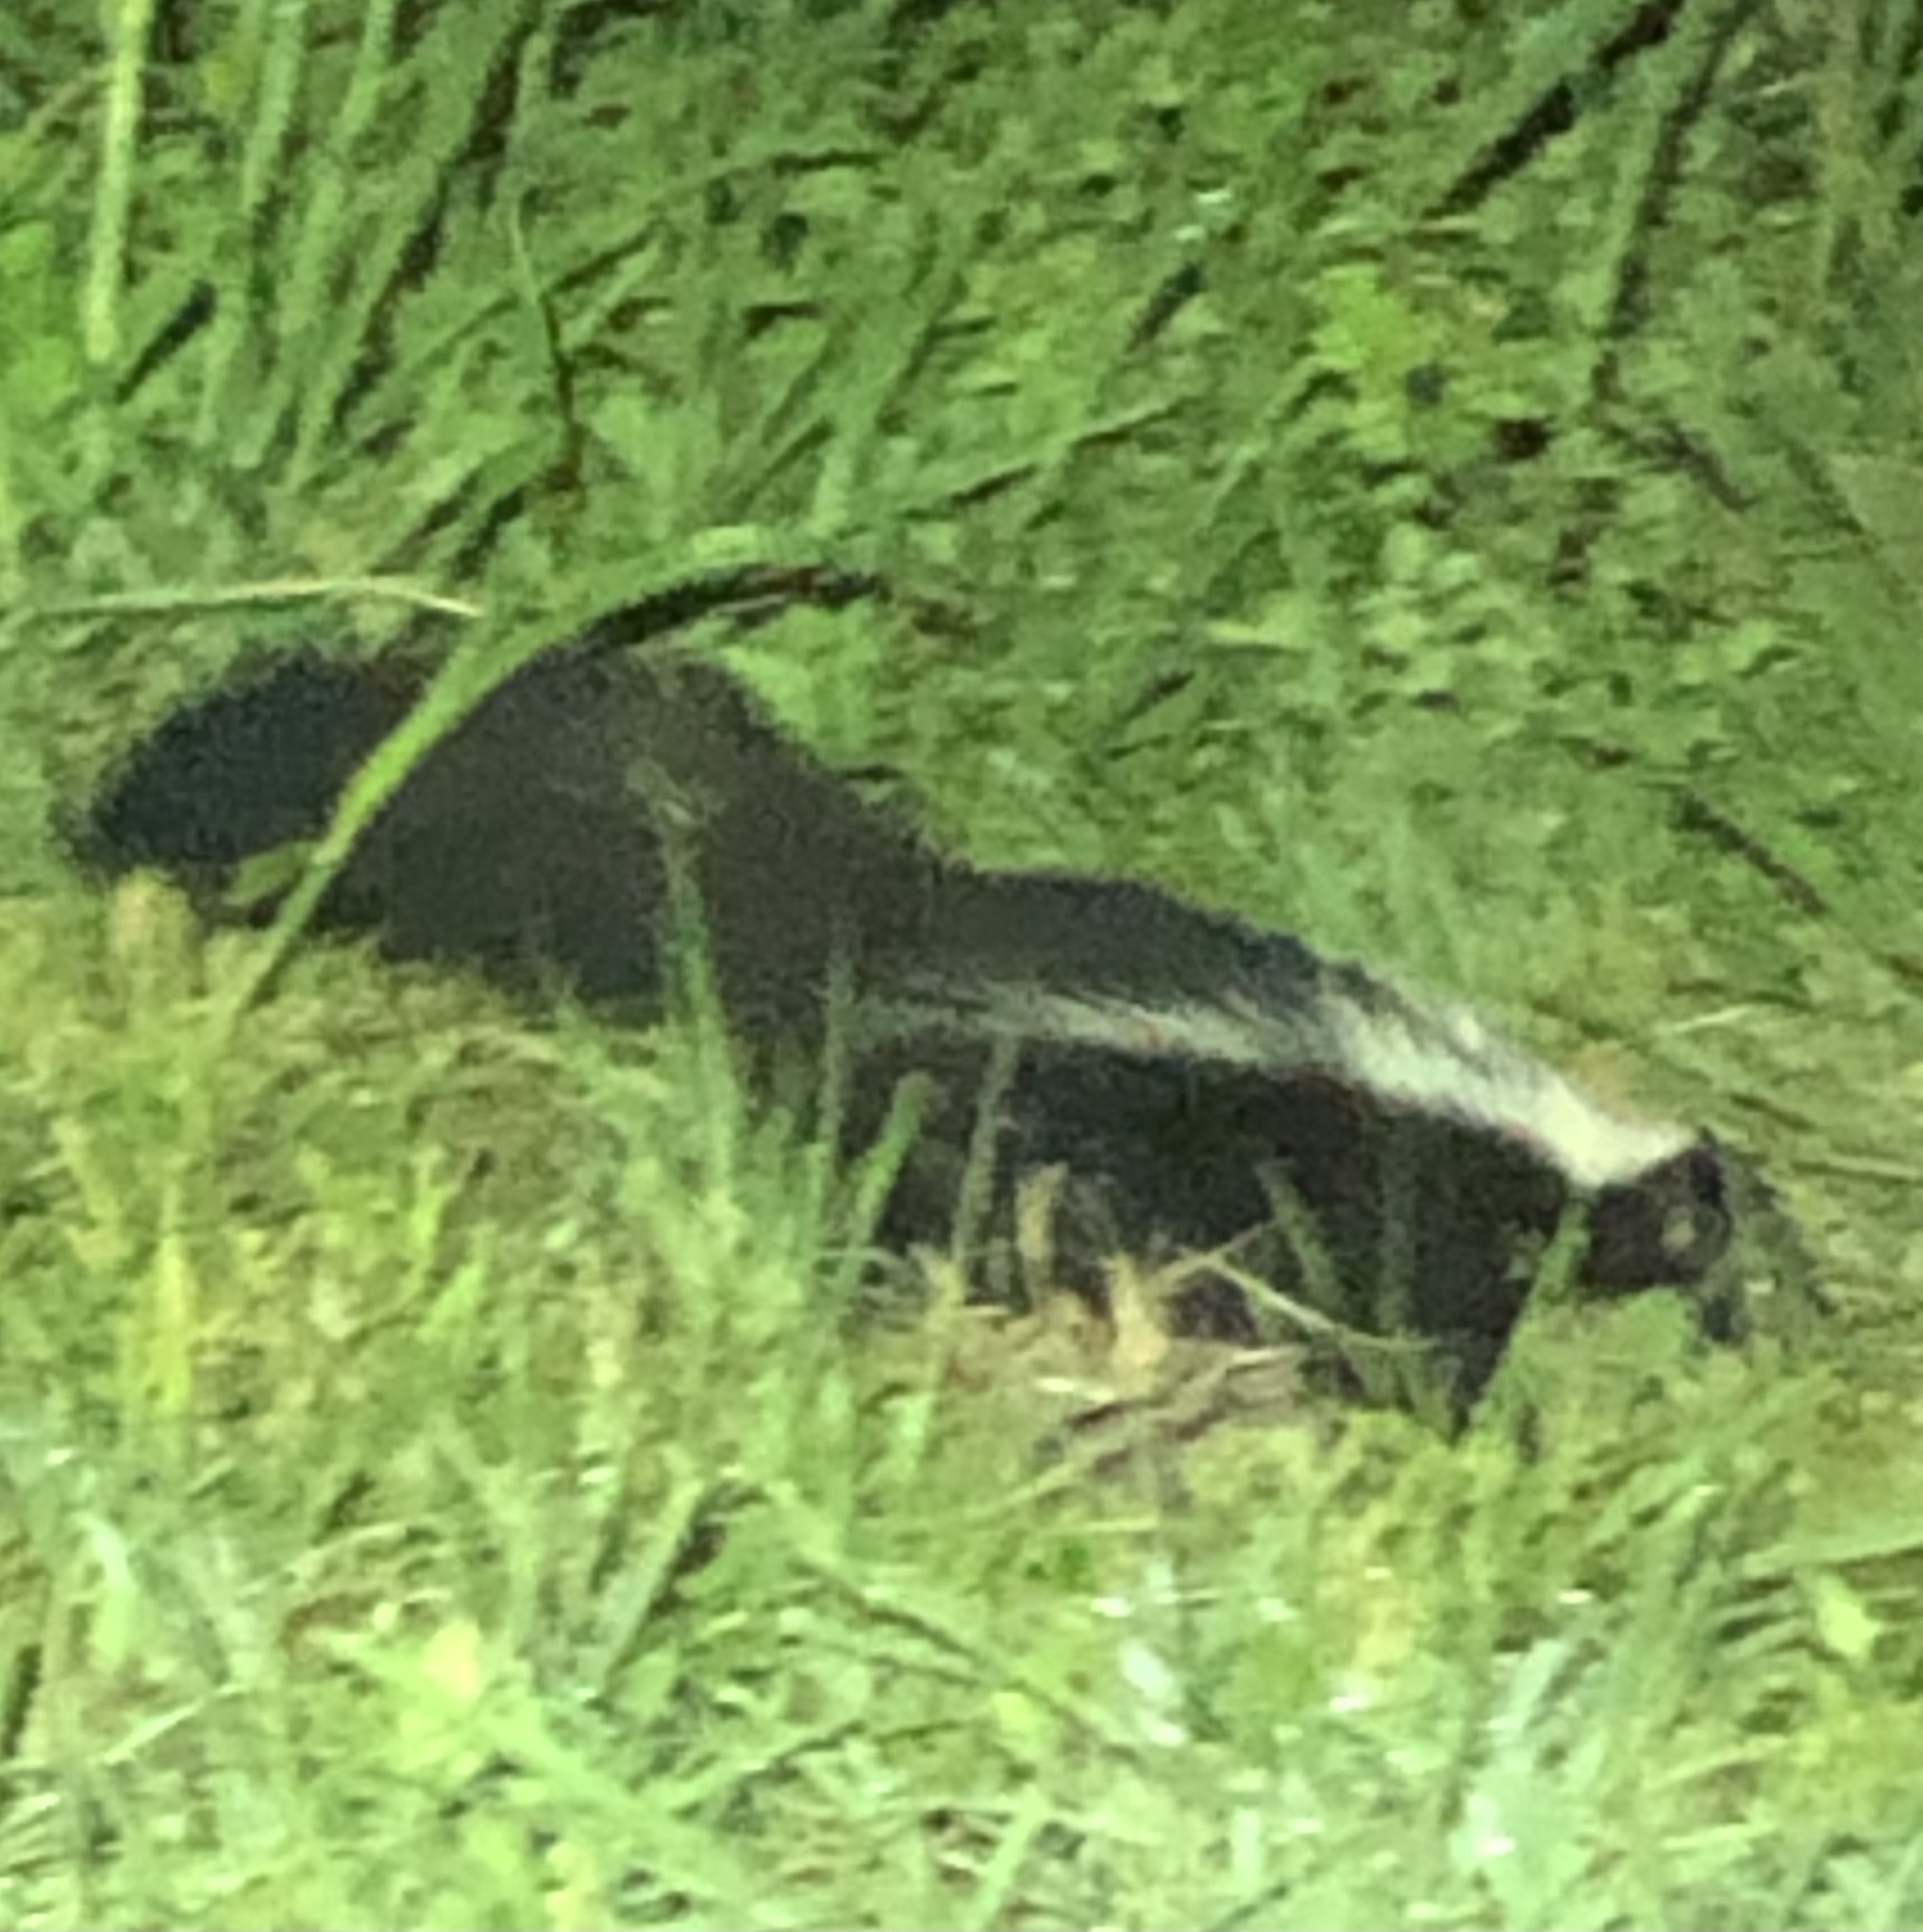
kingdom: Animalia
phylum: Chordata
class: Mammalia
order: Carnivora
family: Mephitidae
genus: Mephitis
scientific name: Mephitis mephitis
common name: Striped skunk
